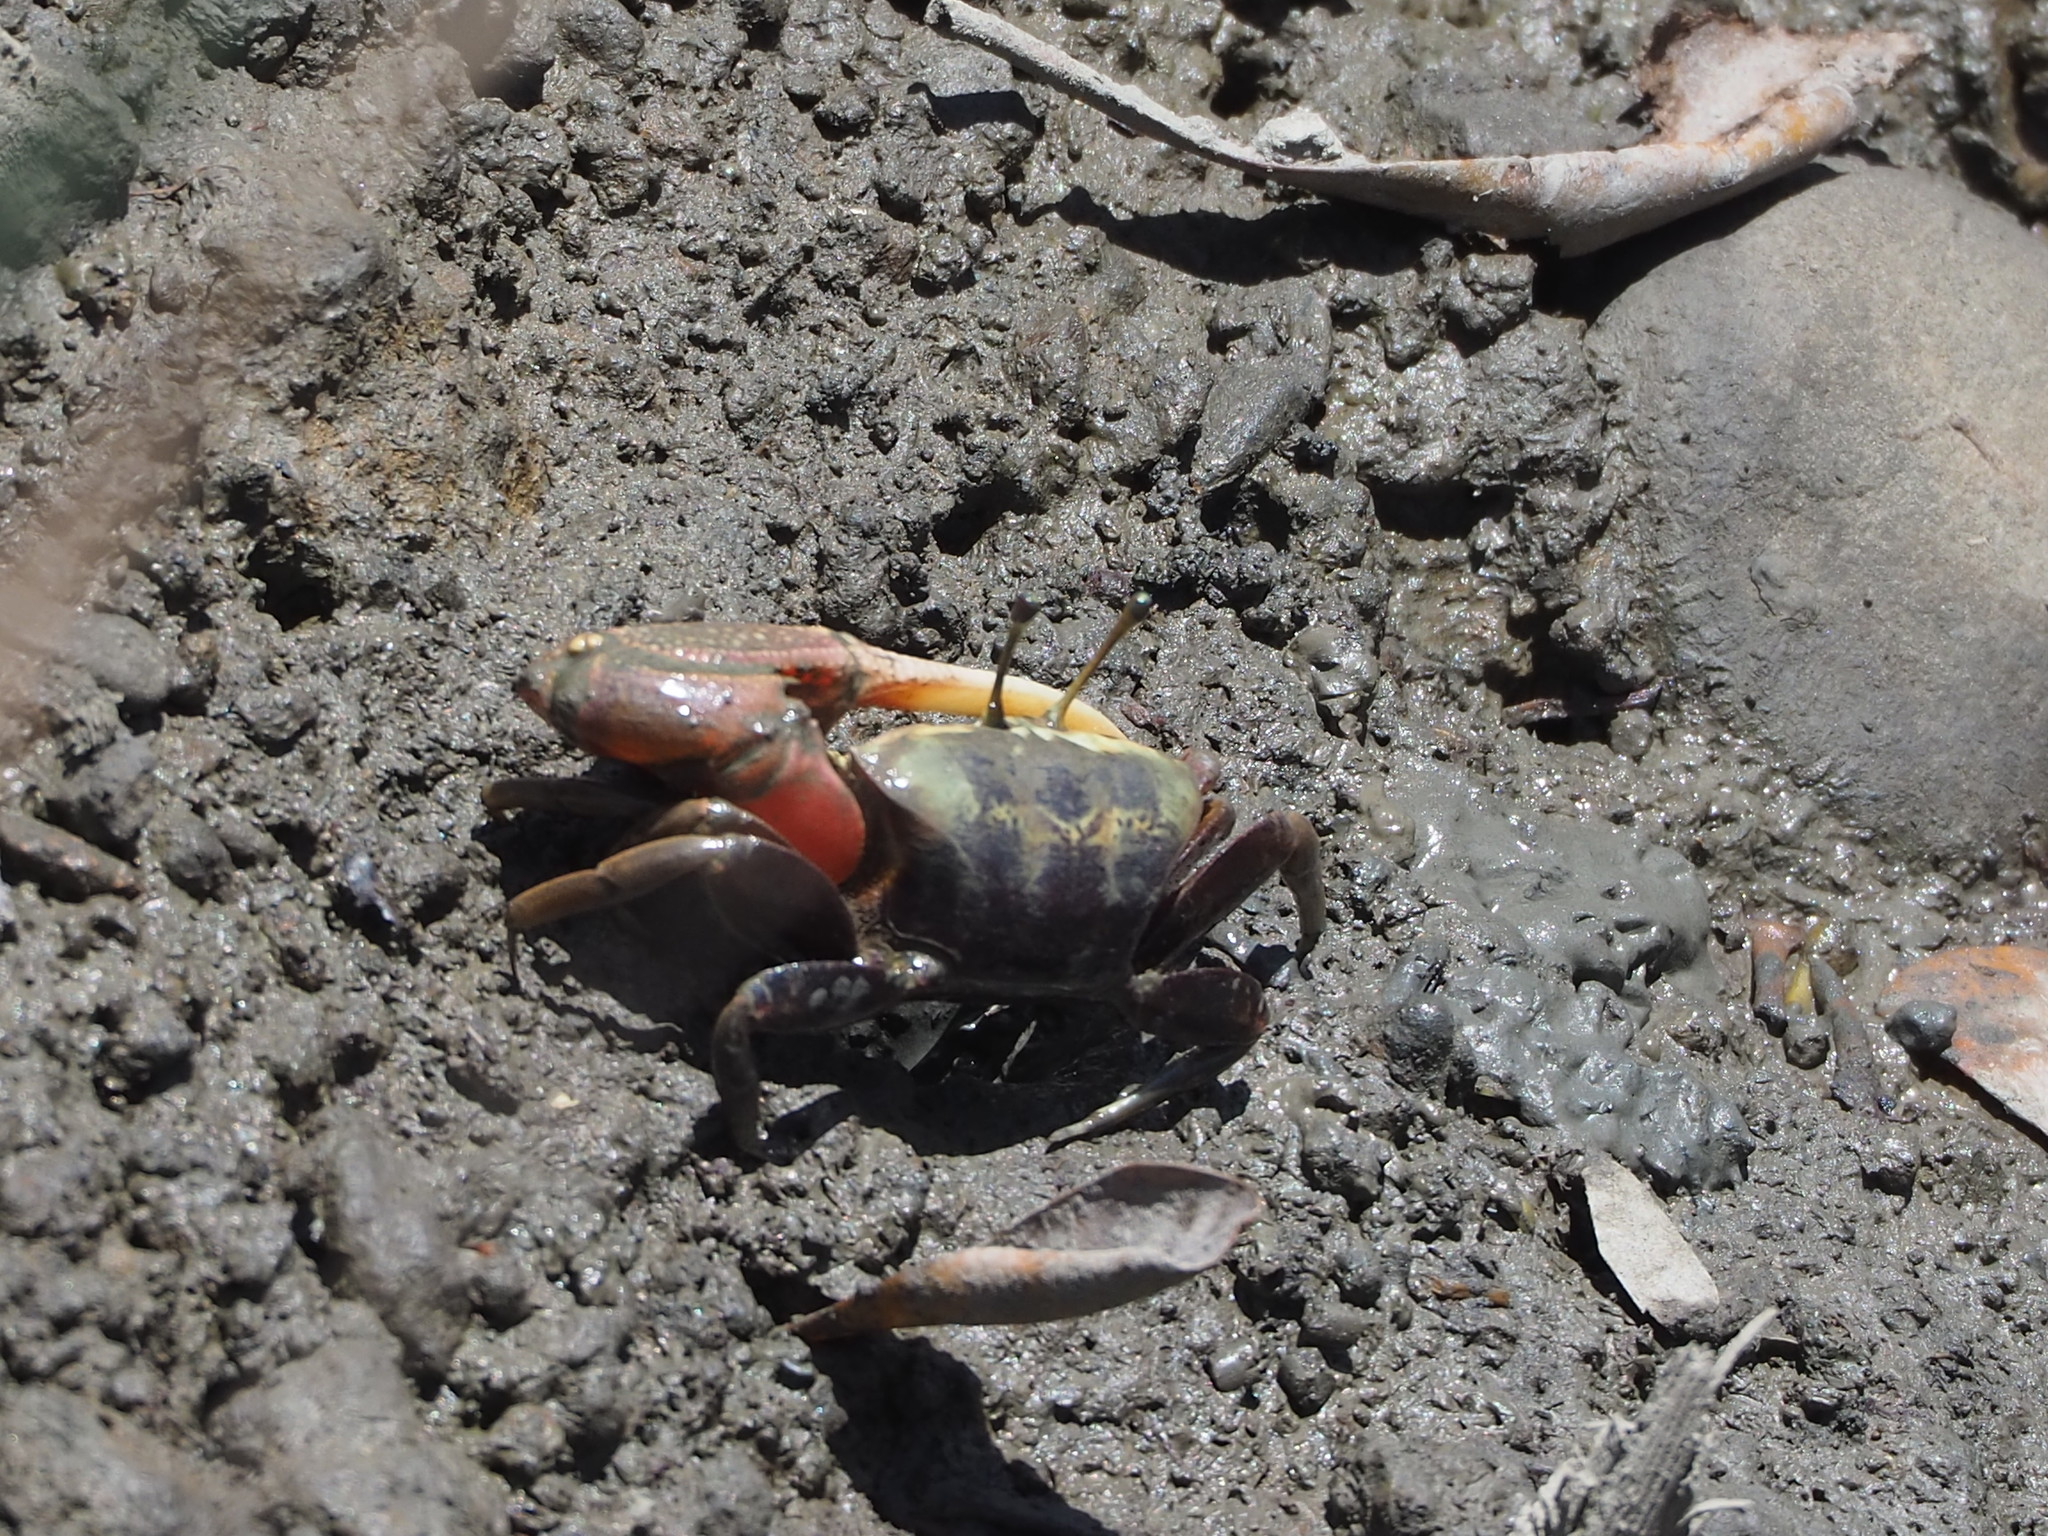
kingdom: Animalia
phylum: Arthropoda
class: Malacostraca
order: Decapoda
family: Ocypodidae
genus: Tubuca
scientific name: Tubuca arcuata
